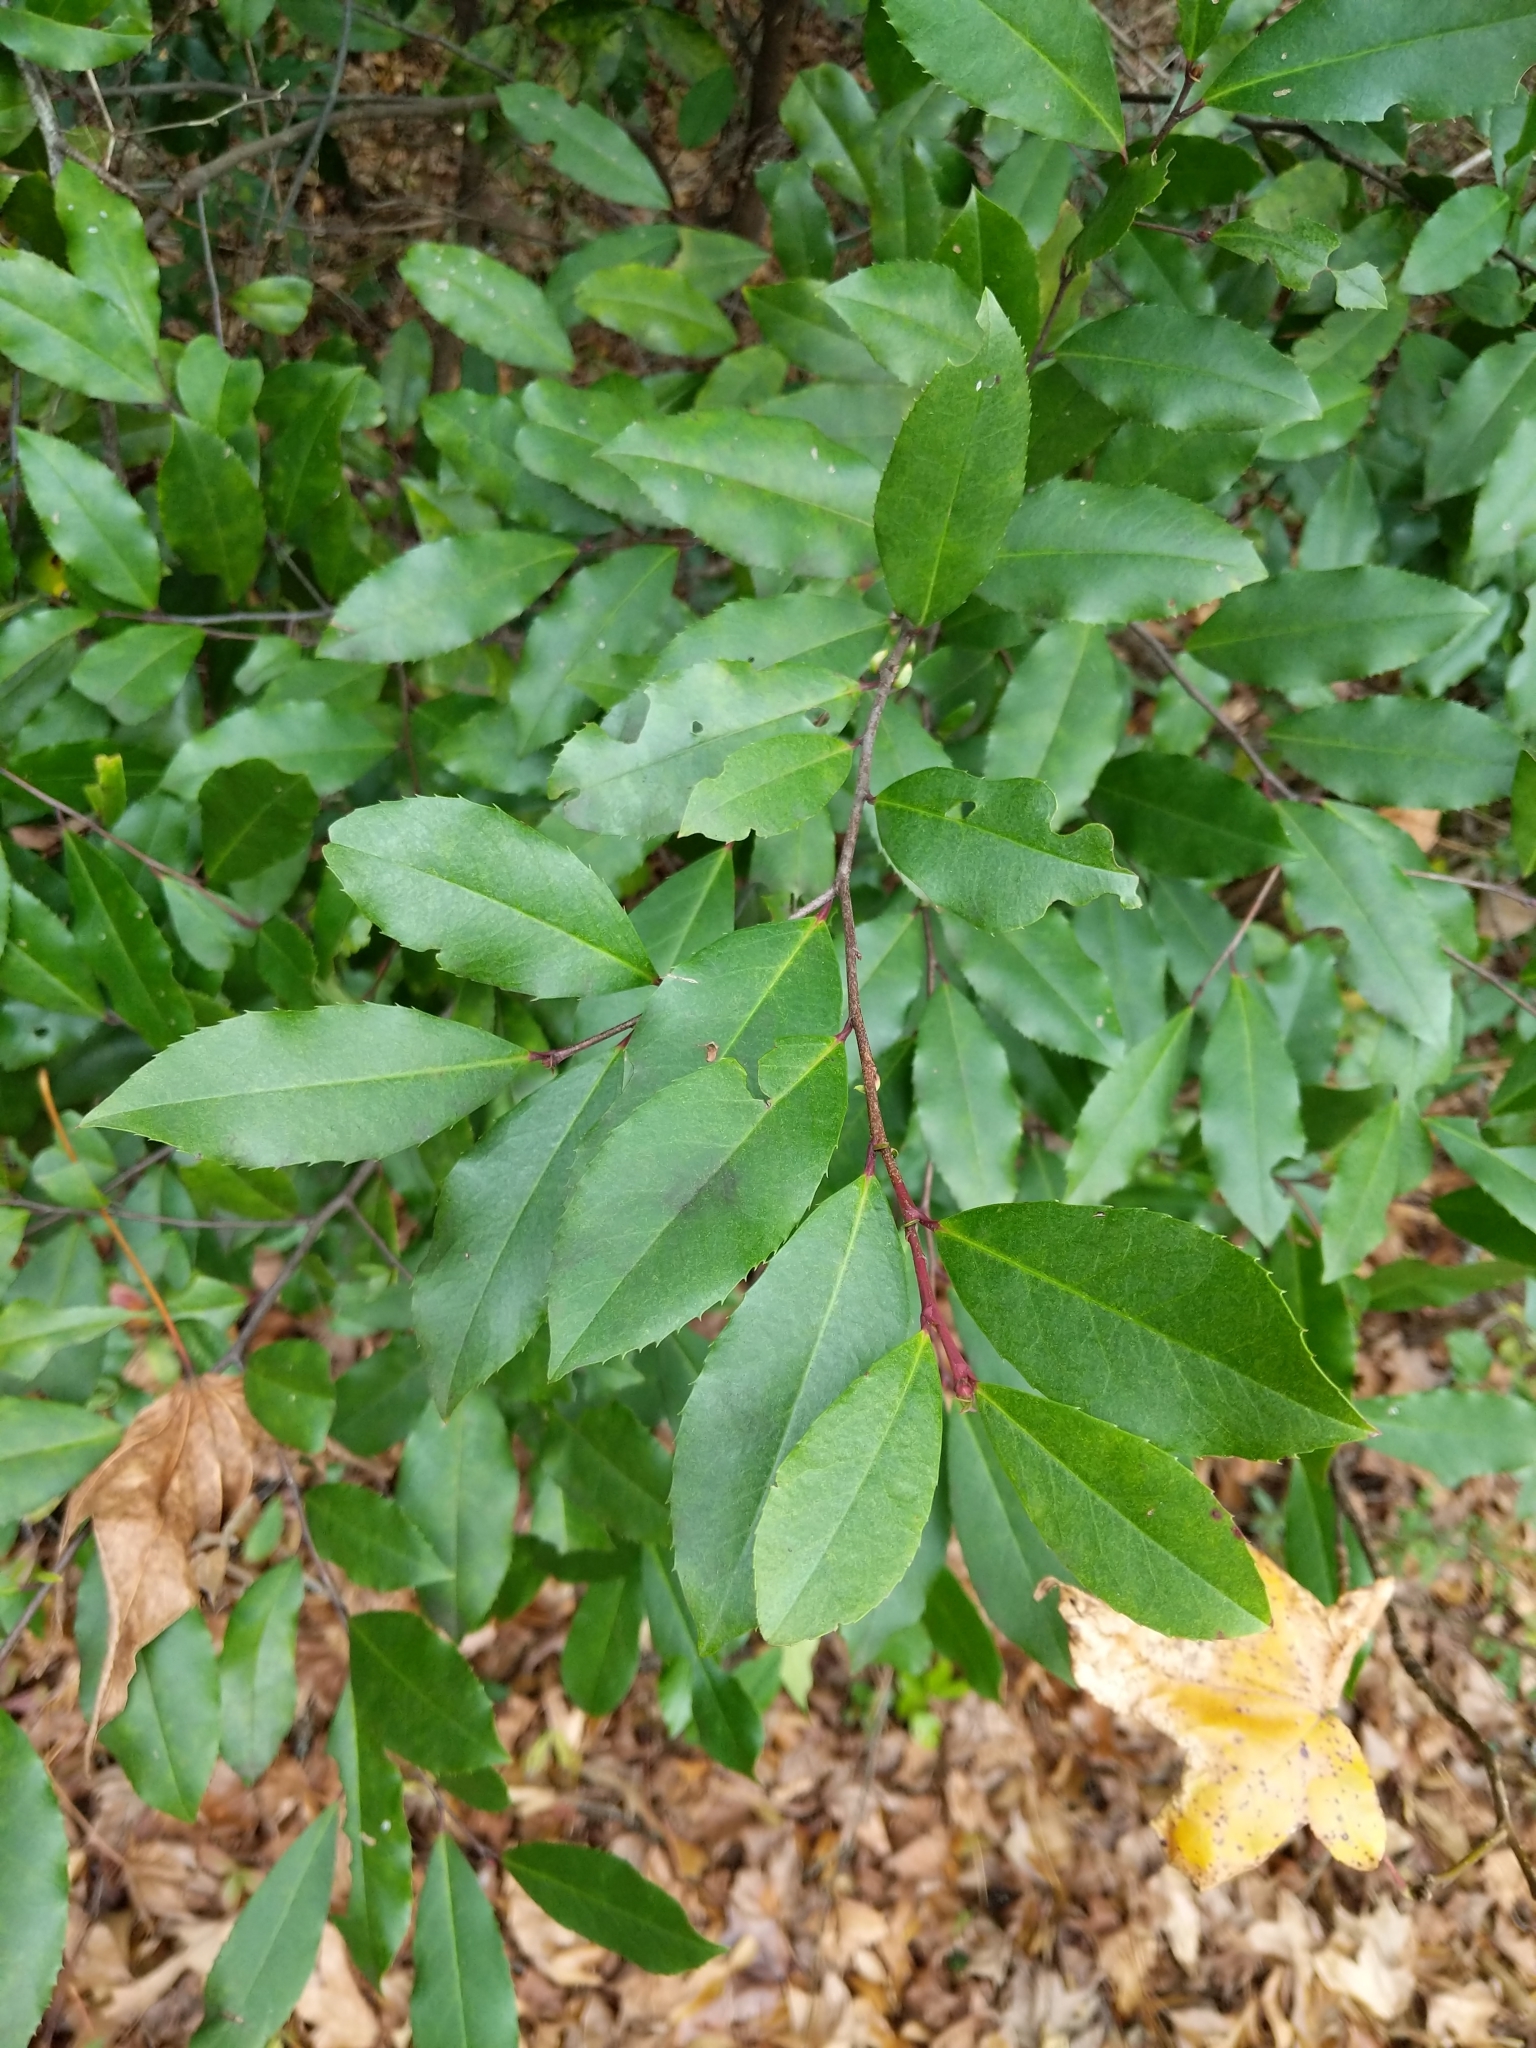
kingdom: Plantae
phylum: Tracheophyta
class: Magnoliopsida
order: Rosales
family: Rosaceae
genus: Prunus
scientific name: Prunus caroliniana
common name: Carolina laurel cherry
